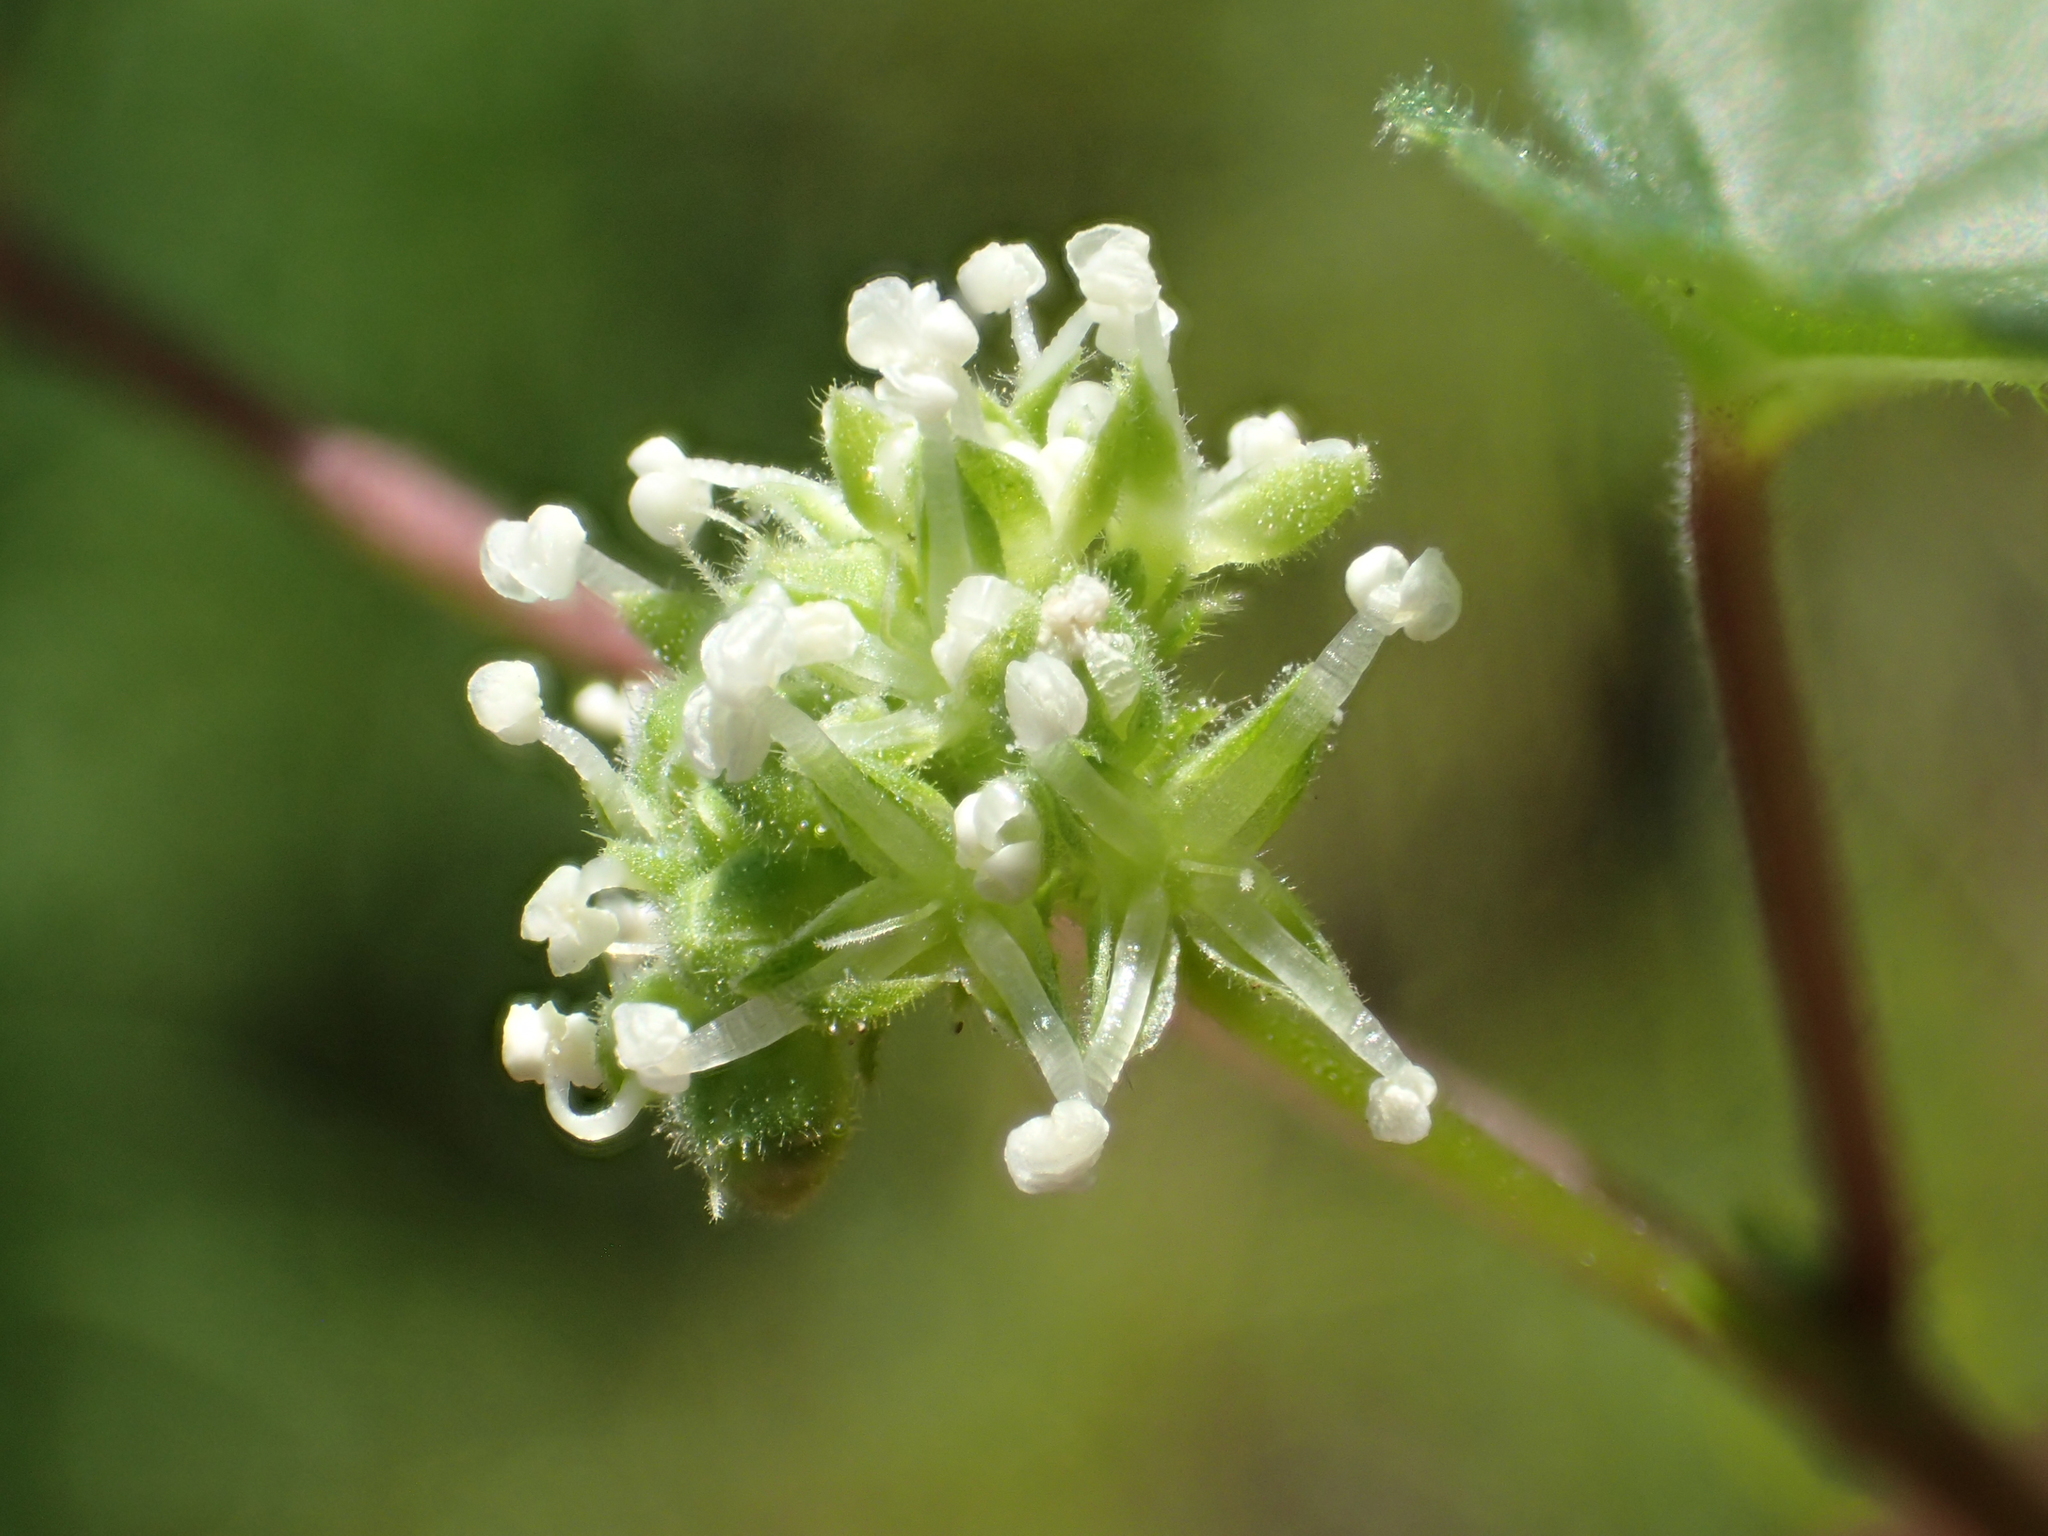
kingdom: Plantae
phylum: Tracheophyta
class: Magnoliopsida
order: Rosales
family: Moraceae
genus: Fatoua
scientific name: Fatoua villosa
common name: Hairy crabweed
